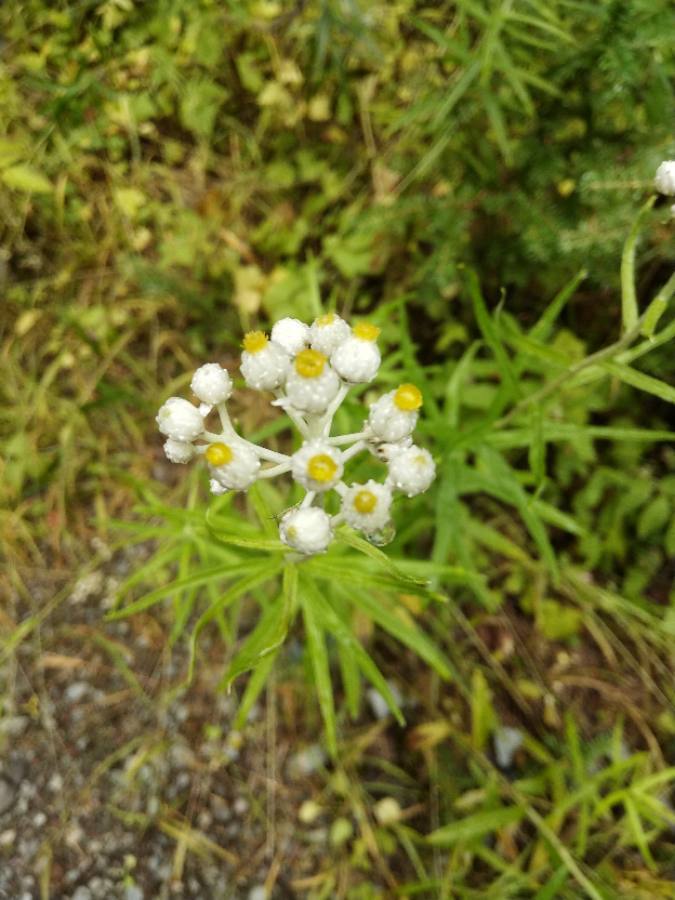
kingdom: Plantae
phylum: Tracheophyta
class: Magnoliopsida
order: Asterales
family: Asteraceae
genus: Anaphalis
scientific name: Anaphalis margaritacea
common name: Pearly everlasting
